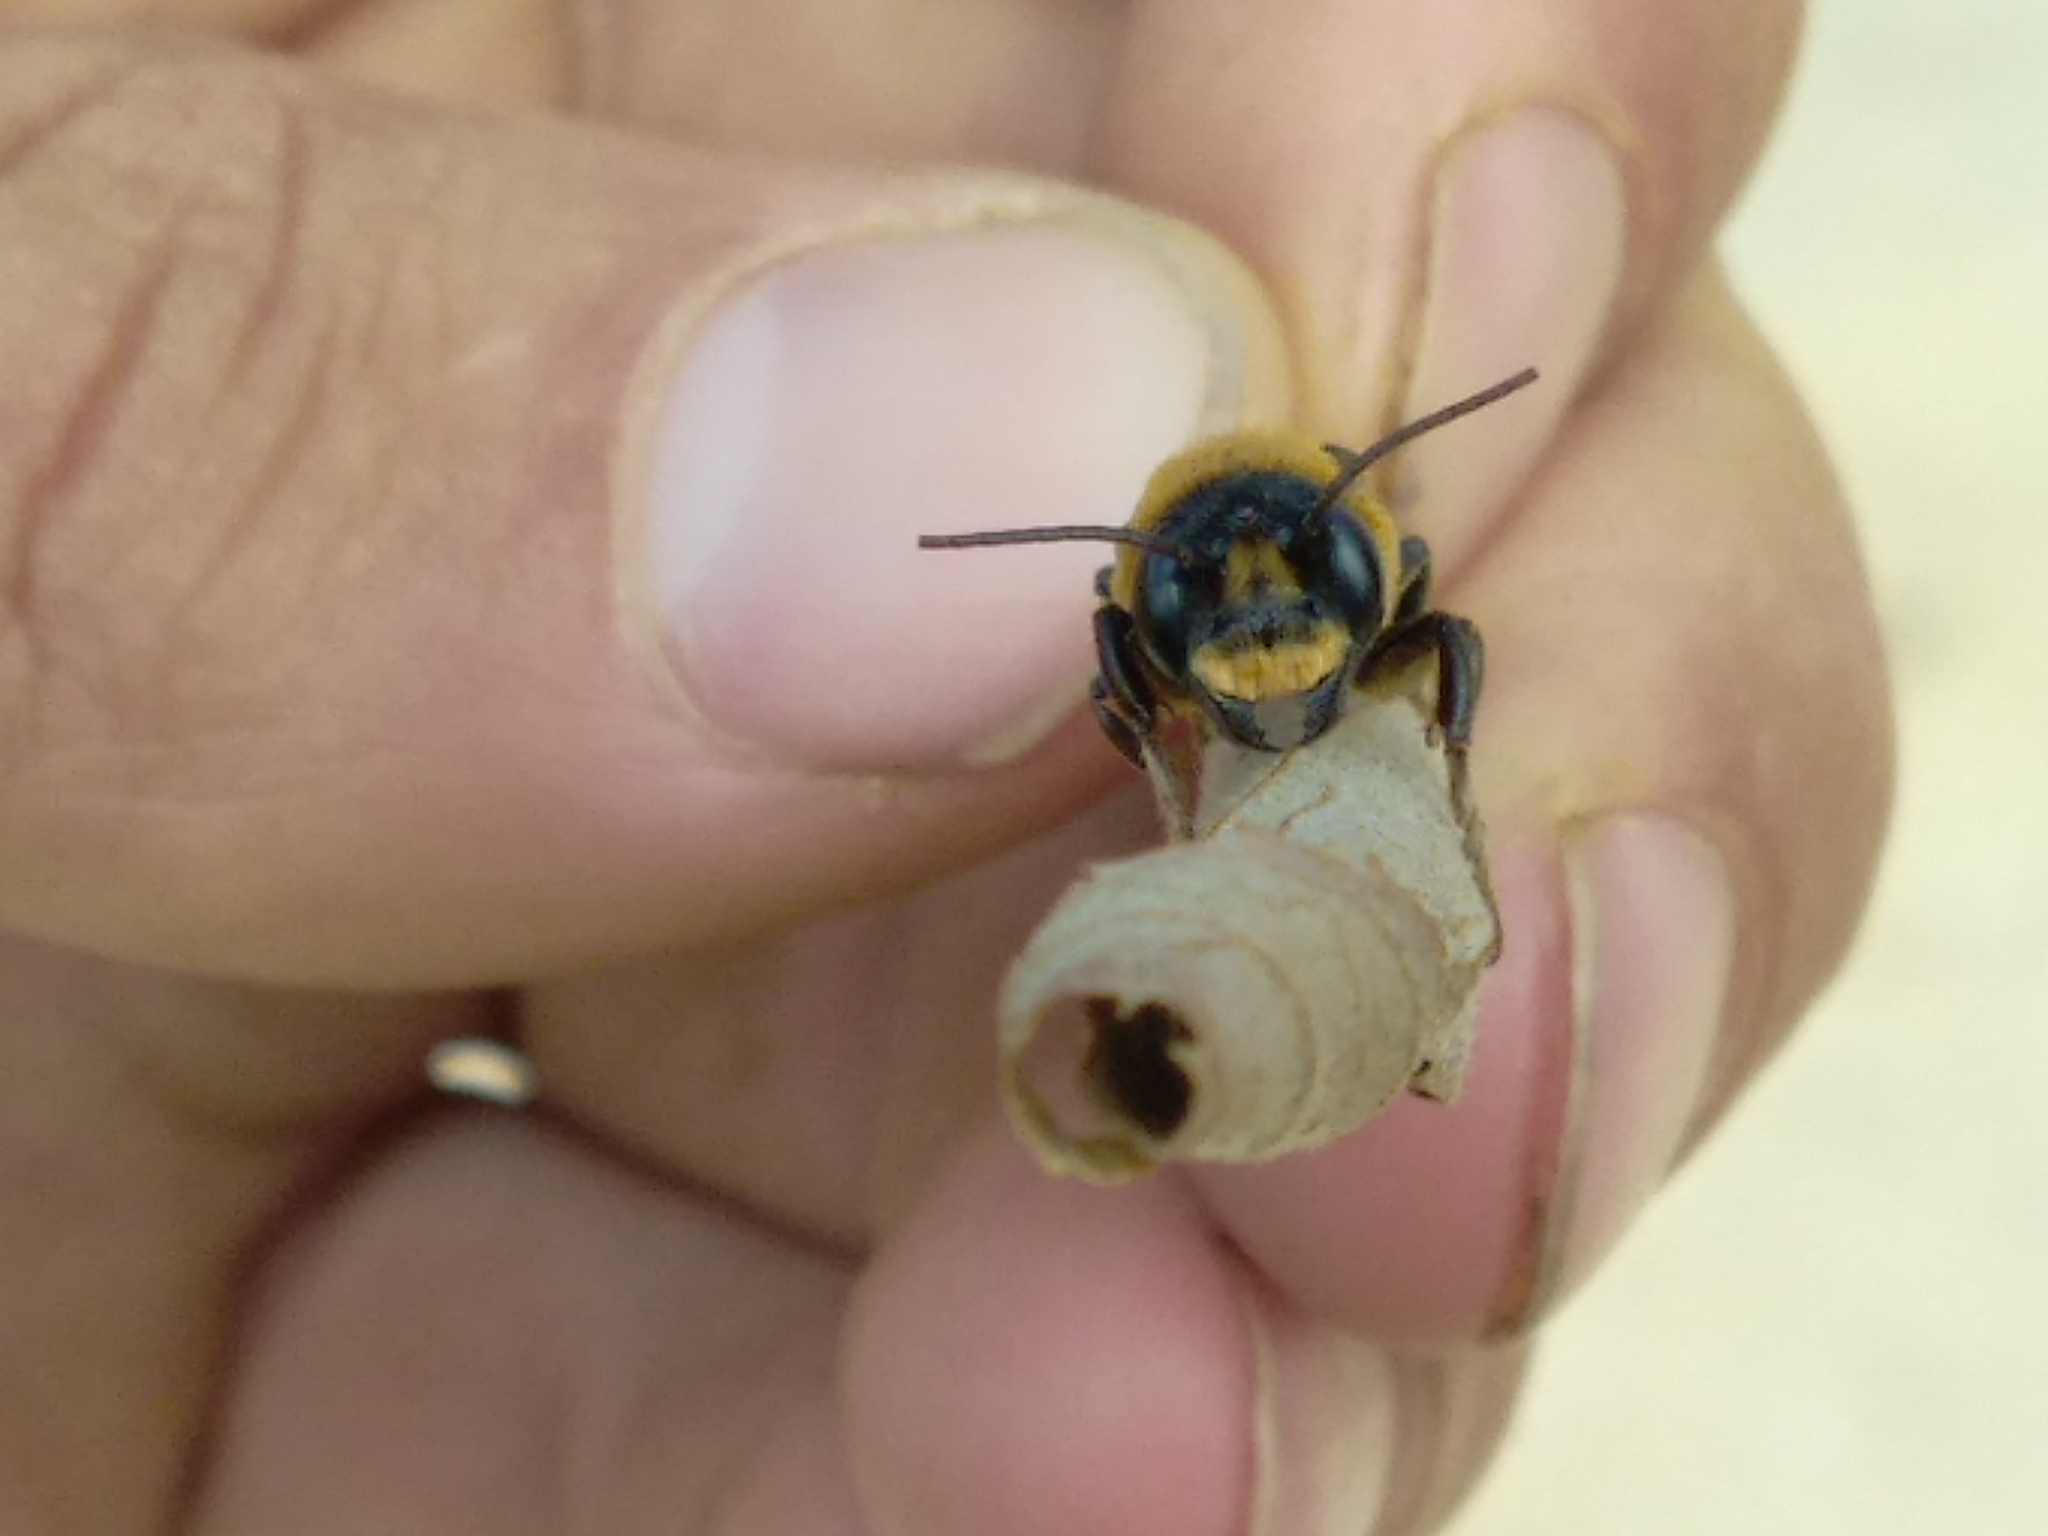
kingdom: Animalia
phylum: Arthropoda
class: Insecta
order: Hymenoptera
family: Megachilidae
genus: Megachile
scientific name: Megachile sculpturalis
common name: Sculptured resin bee
